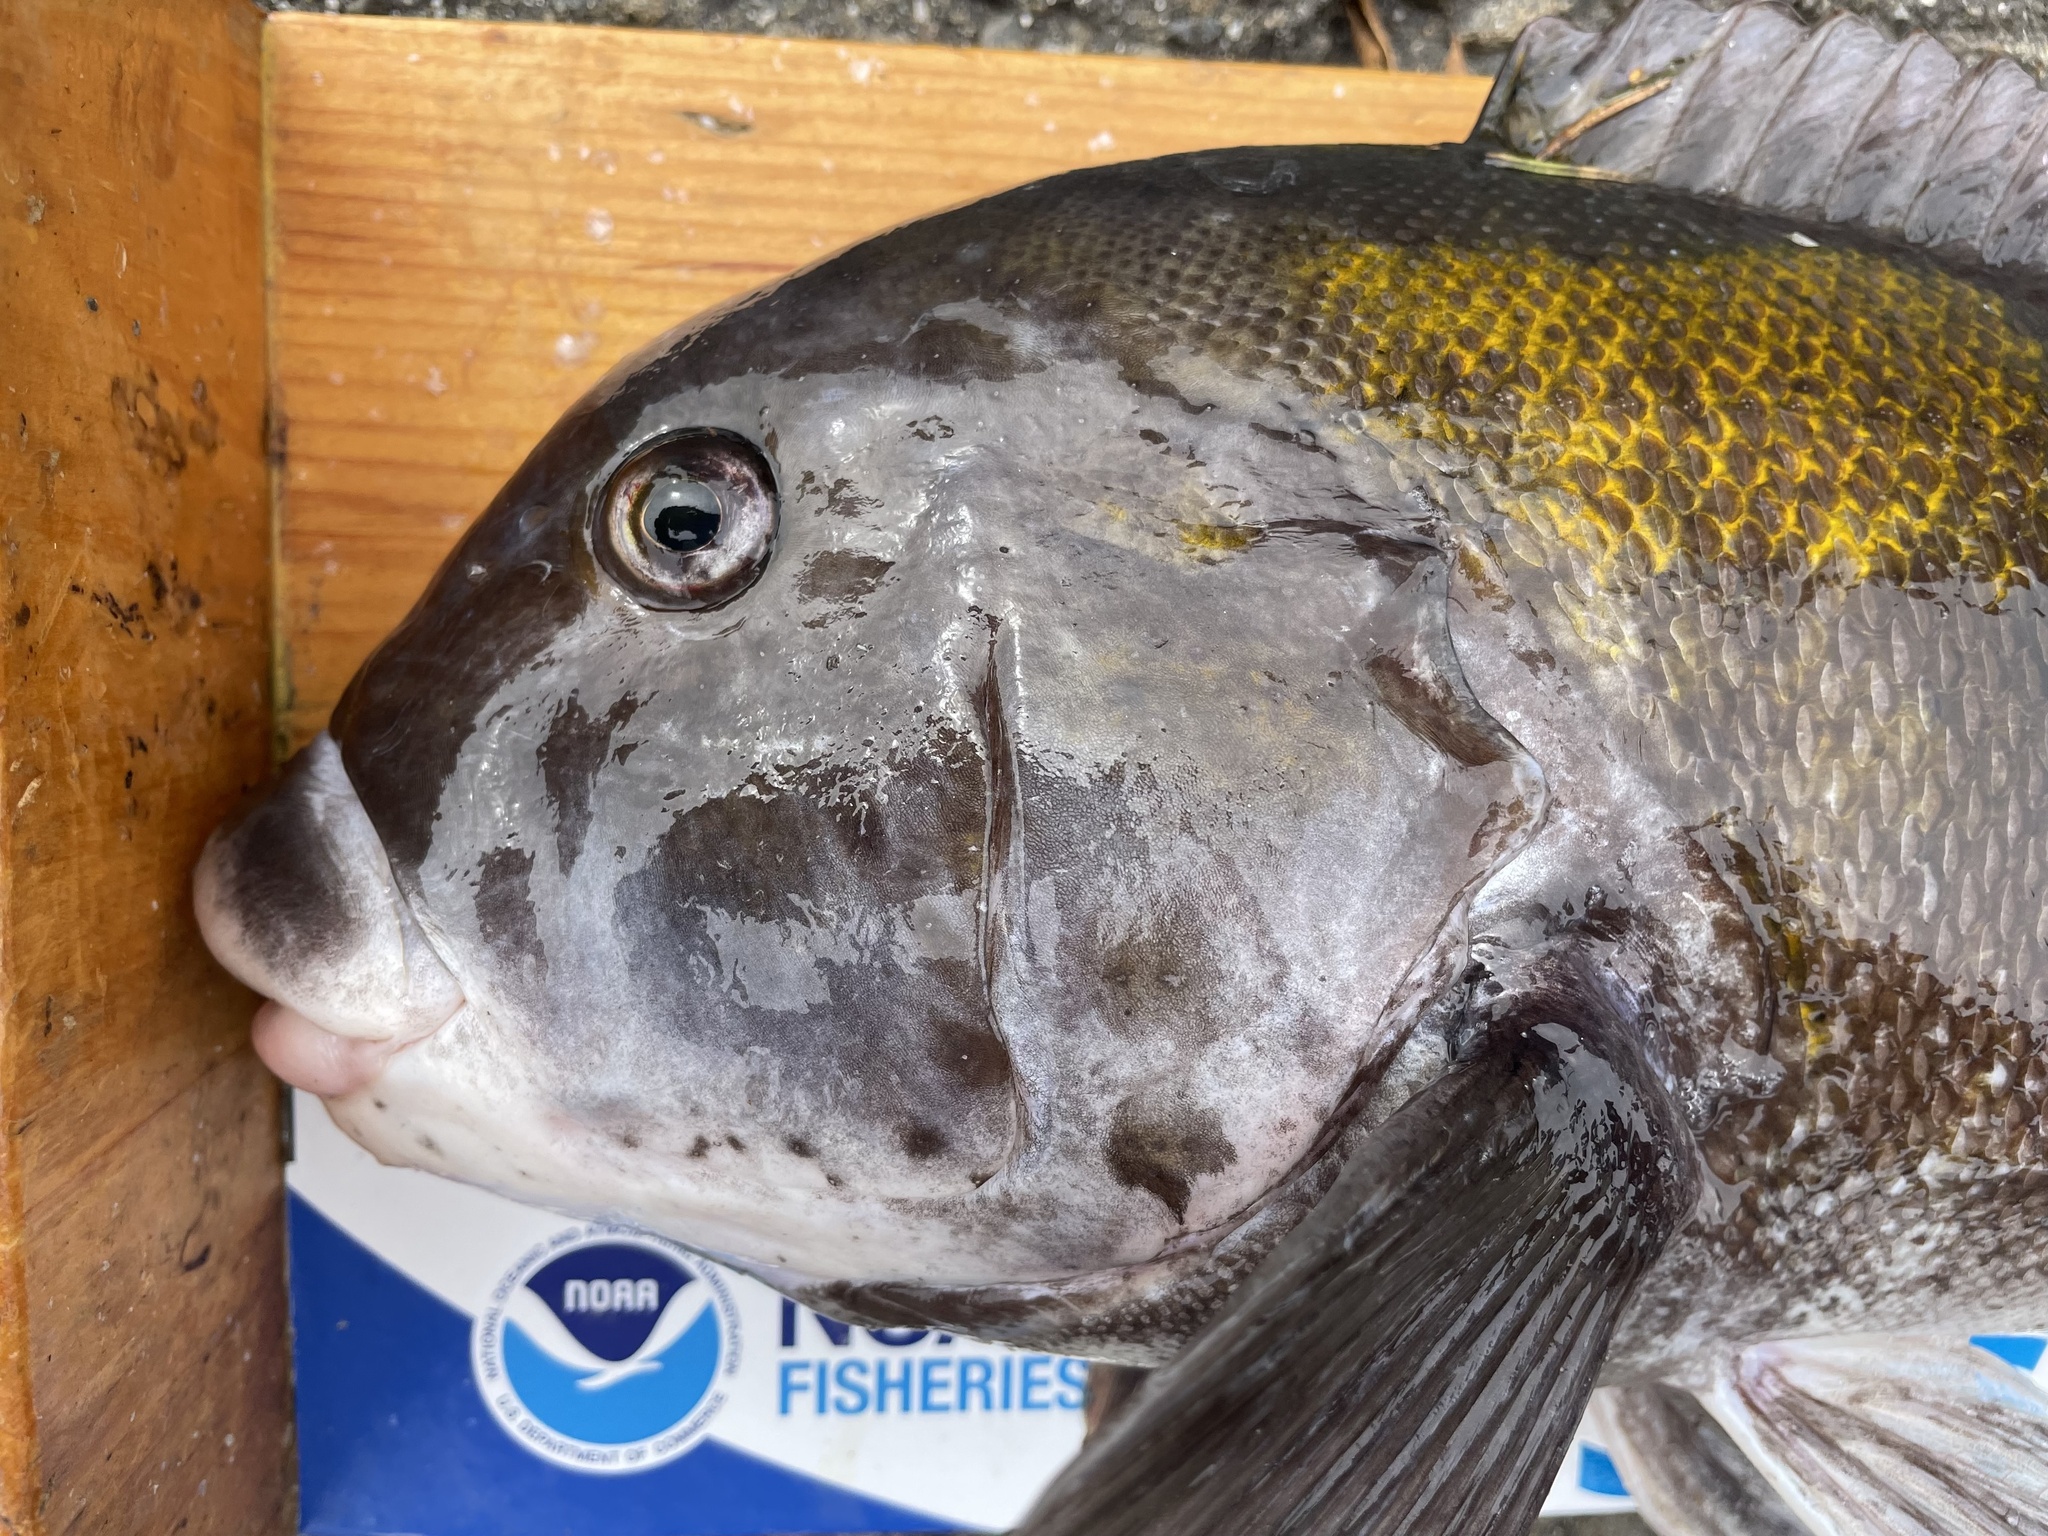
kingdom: Animalia
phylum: Chordata
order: Perciformes
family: Labridae
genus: Tautoga
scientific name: Tautoga onitis
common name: Tautog
